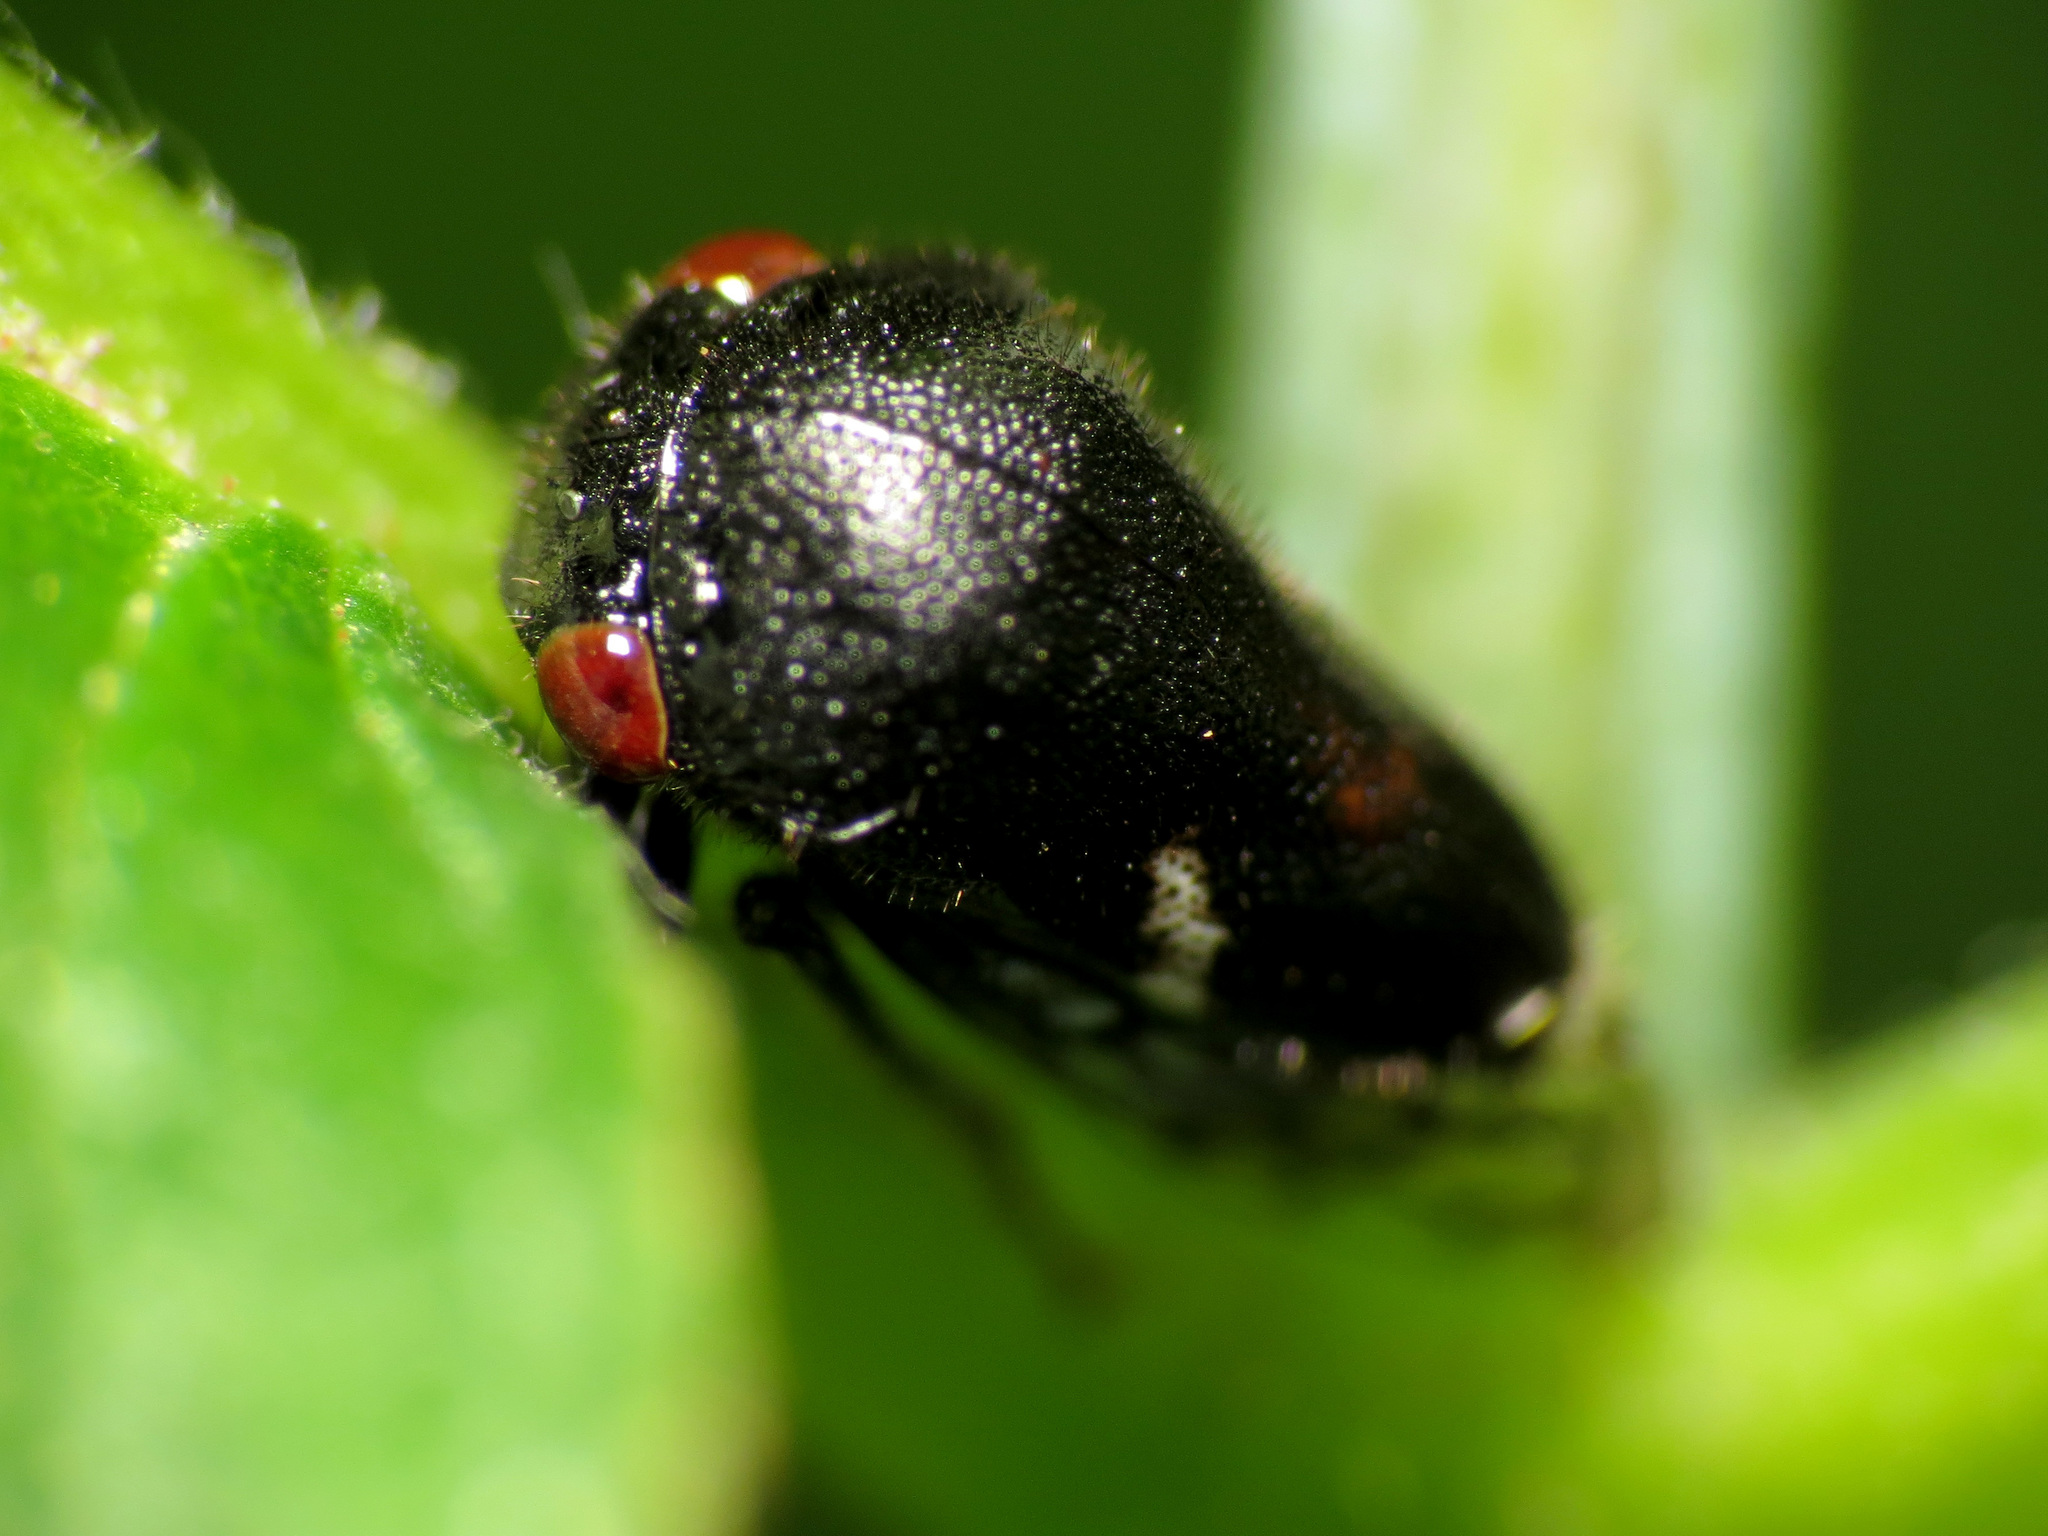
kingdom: Animalia
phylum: Arthropoda
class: Insecta
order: Hemiptera
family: Membracidae
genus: Vanduzea
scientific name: Vanduzea arquata
